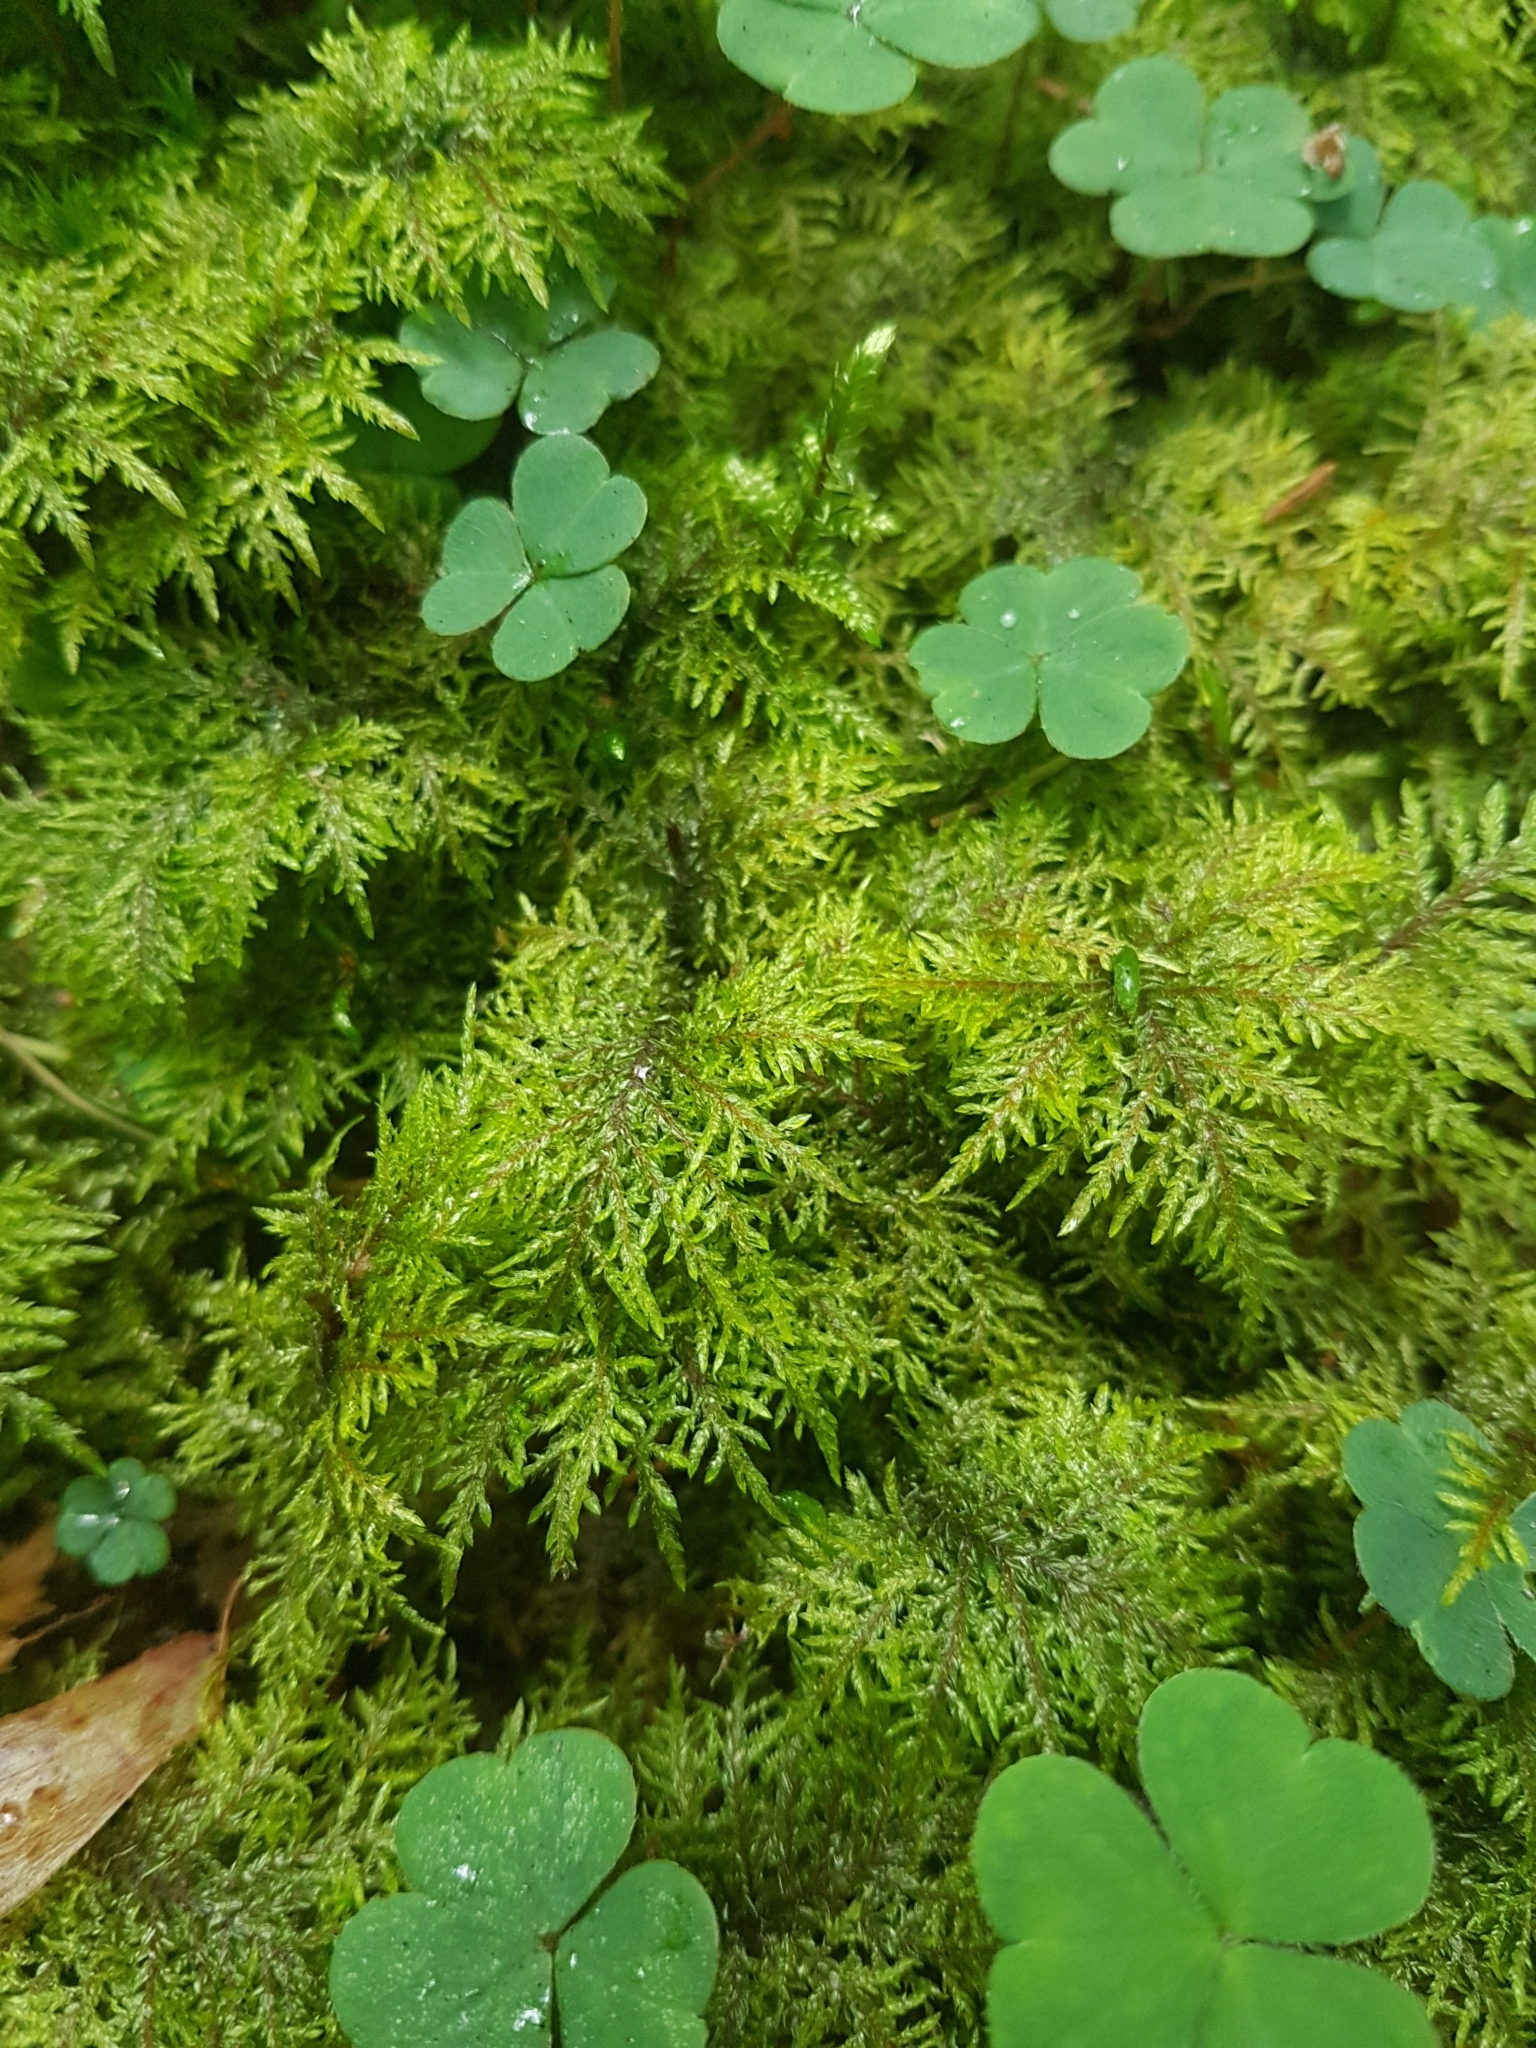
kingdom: Plantae
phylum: Bryophyta
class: Bryopsida
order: Hypnales
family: Hylocomiaceae
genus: Hylocomium
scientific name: Hylocomium splendens
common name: Stairstep moss
